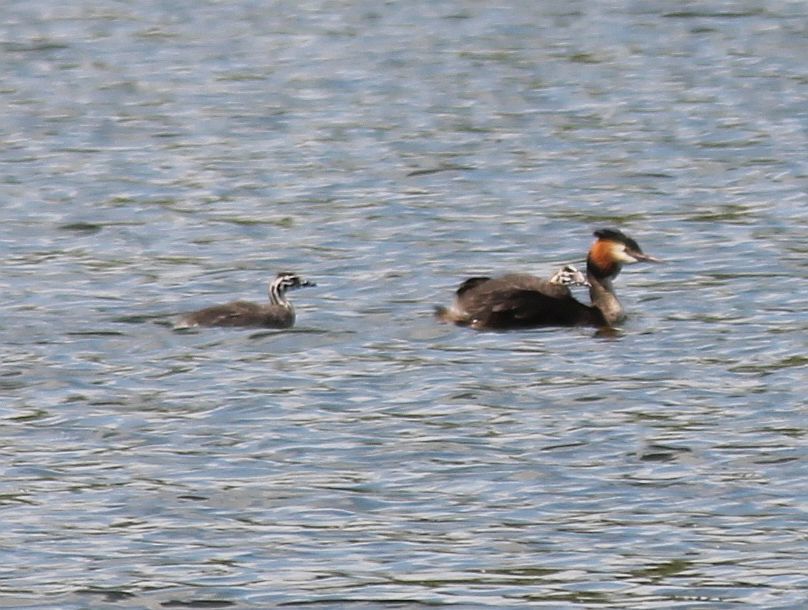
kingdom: Animalia
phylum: Chordata
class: Aves
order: Podicipediformes
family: Podicipedidae
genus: Podiceps
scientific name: Podiceps cristatus
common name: Great crested grebe
